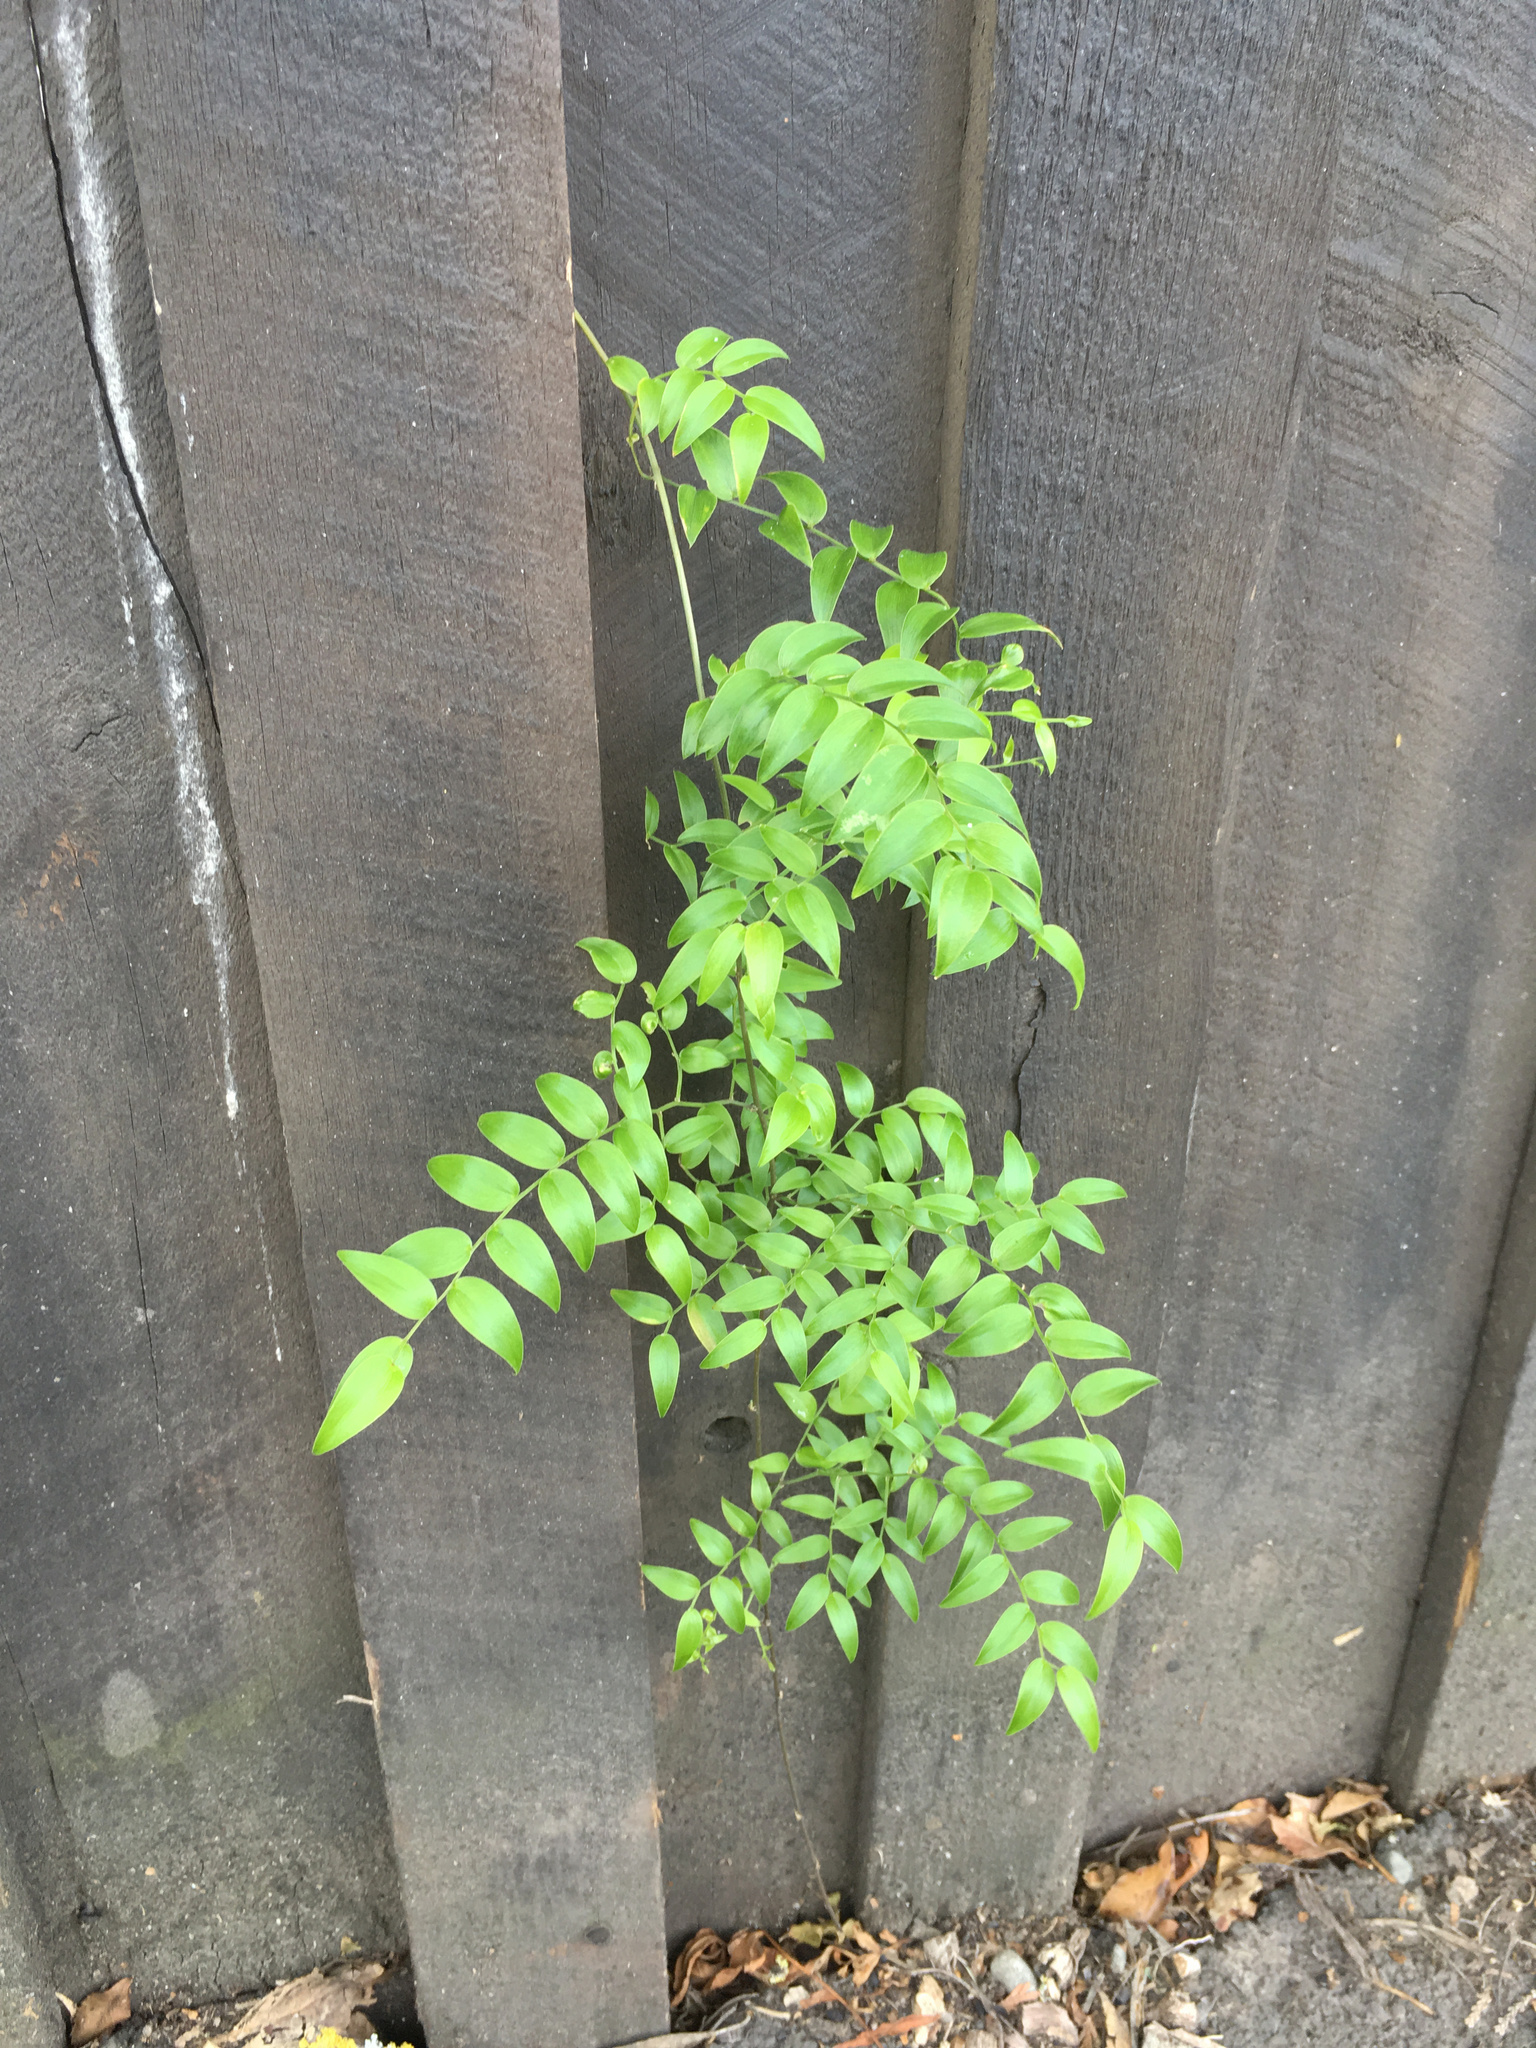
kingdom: Plantae
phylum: Tracheophyta
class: Liliopsida
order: Asparagales
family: Asparagaceae
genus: Asparagus
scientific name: Asparagus asparagoides
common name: African asparagus fern
